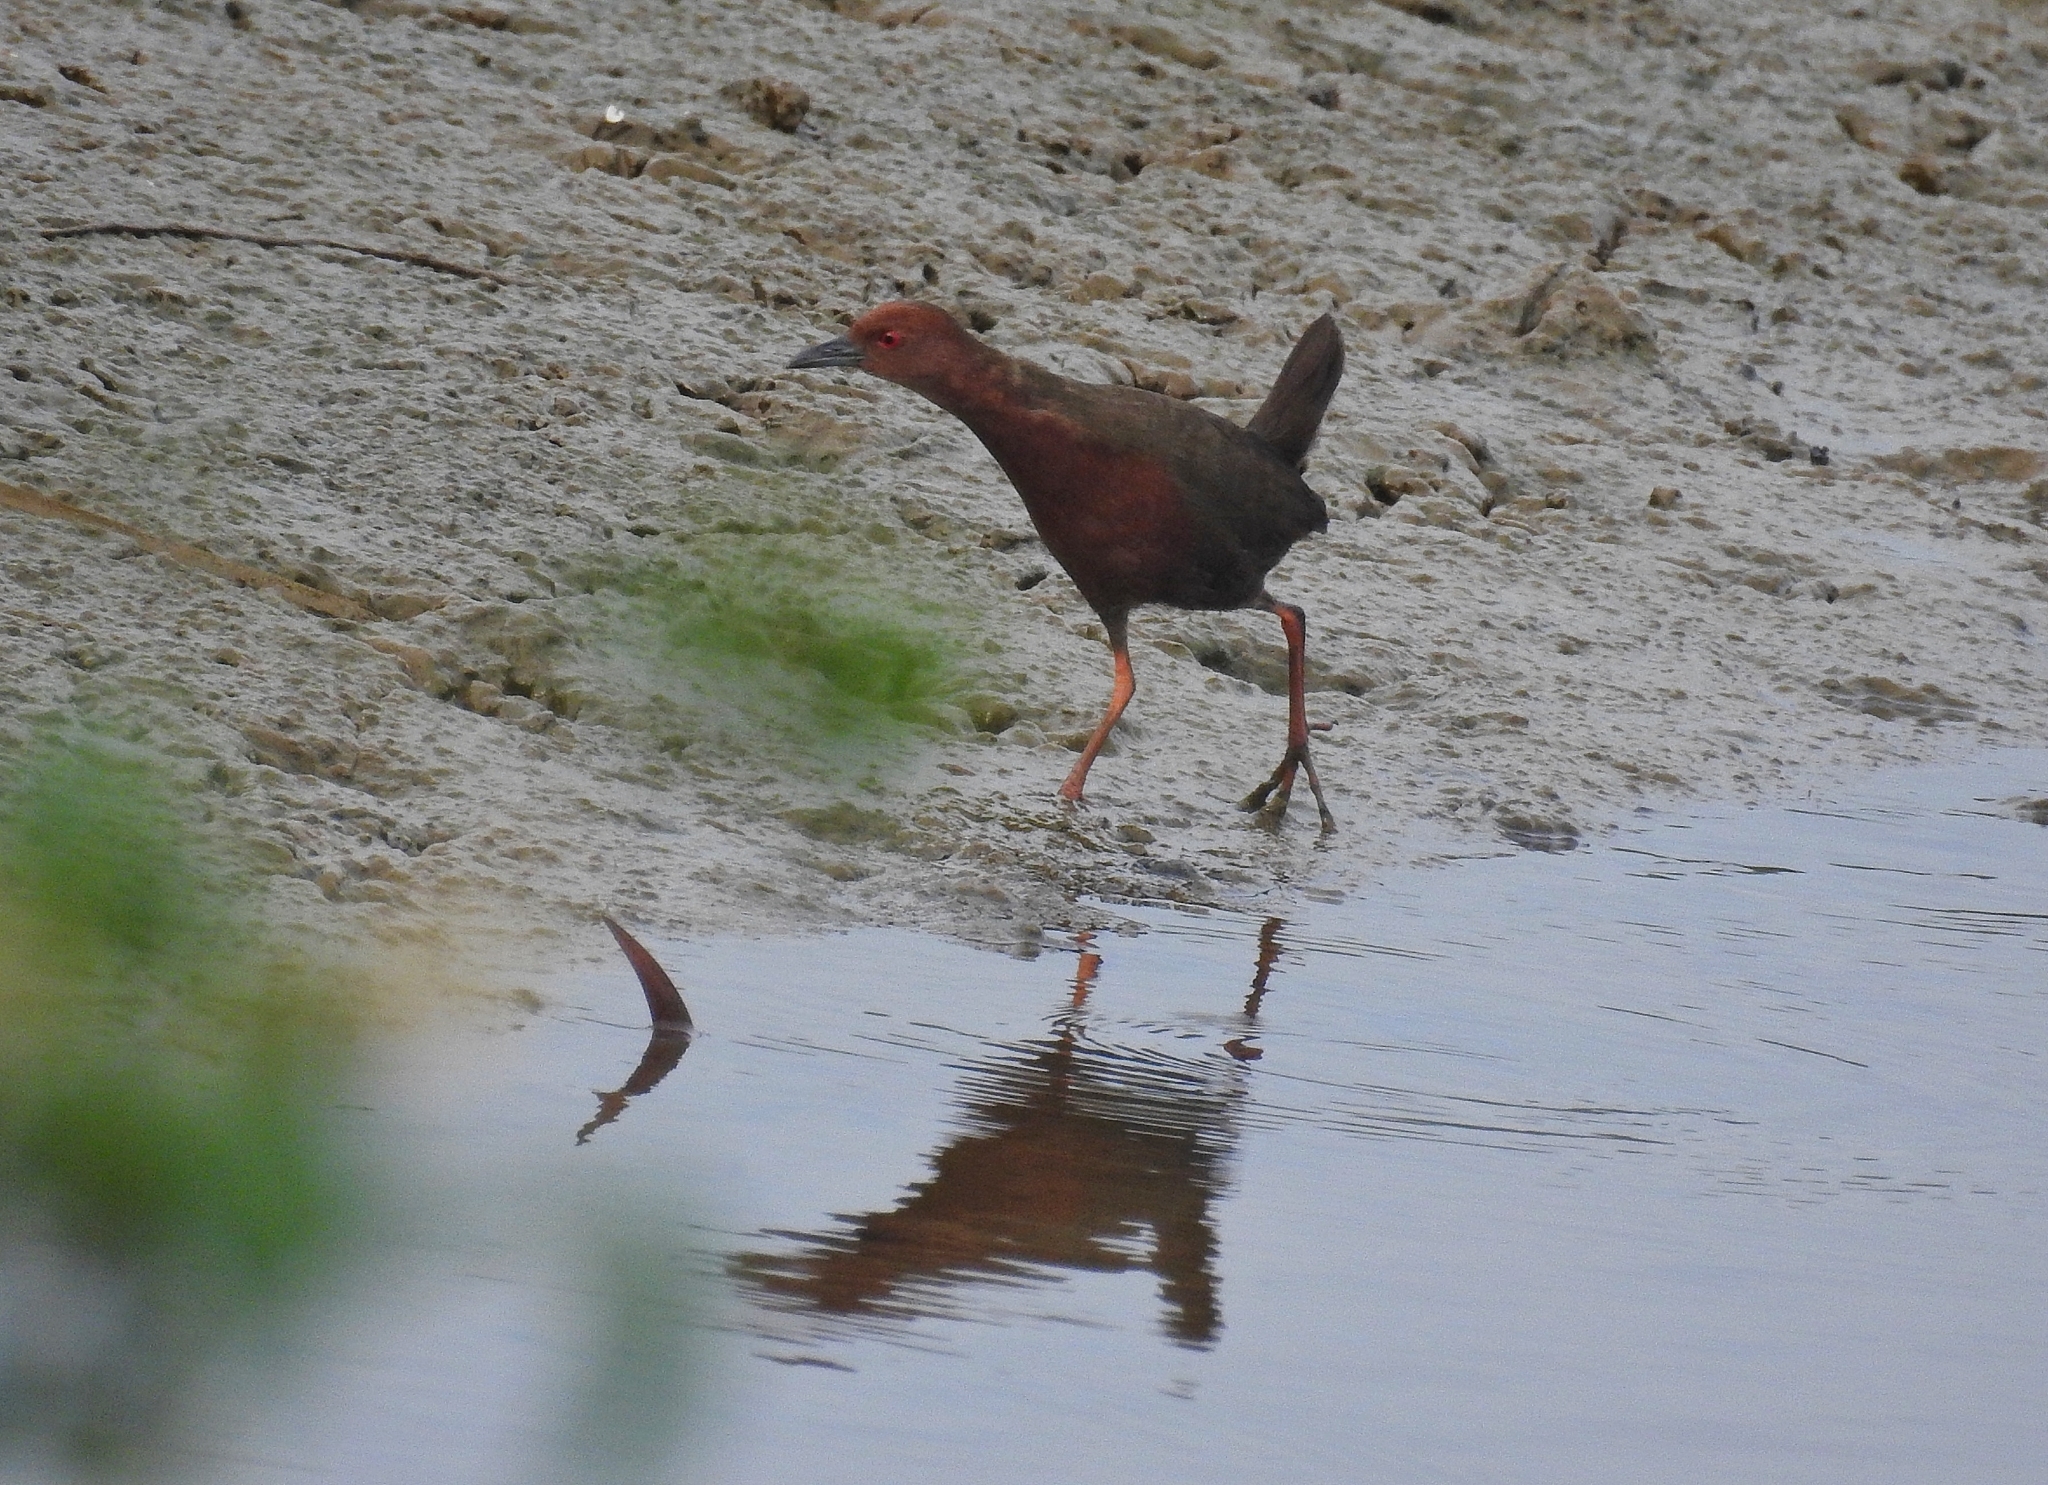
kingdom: Animalia
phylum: Chordata
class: Aves
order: Gruiformes
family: Rallidae
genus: Porzana
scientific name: Porzana fusca
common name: Ruddy-breasted crake
